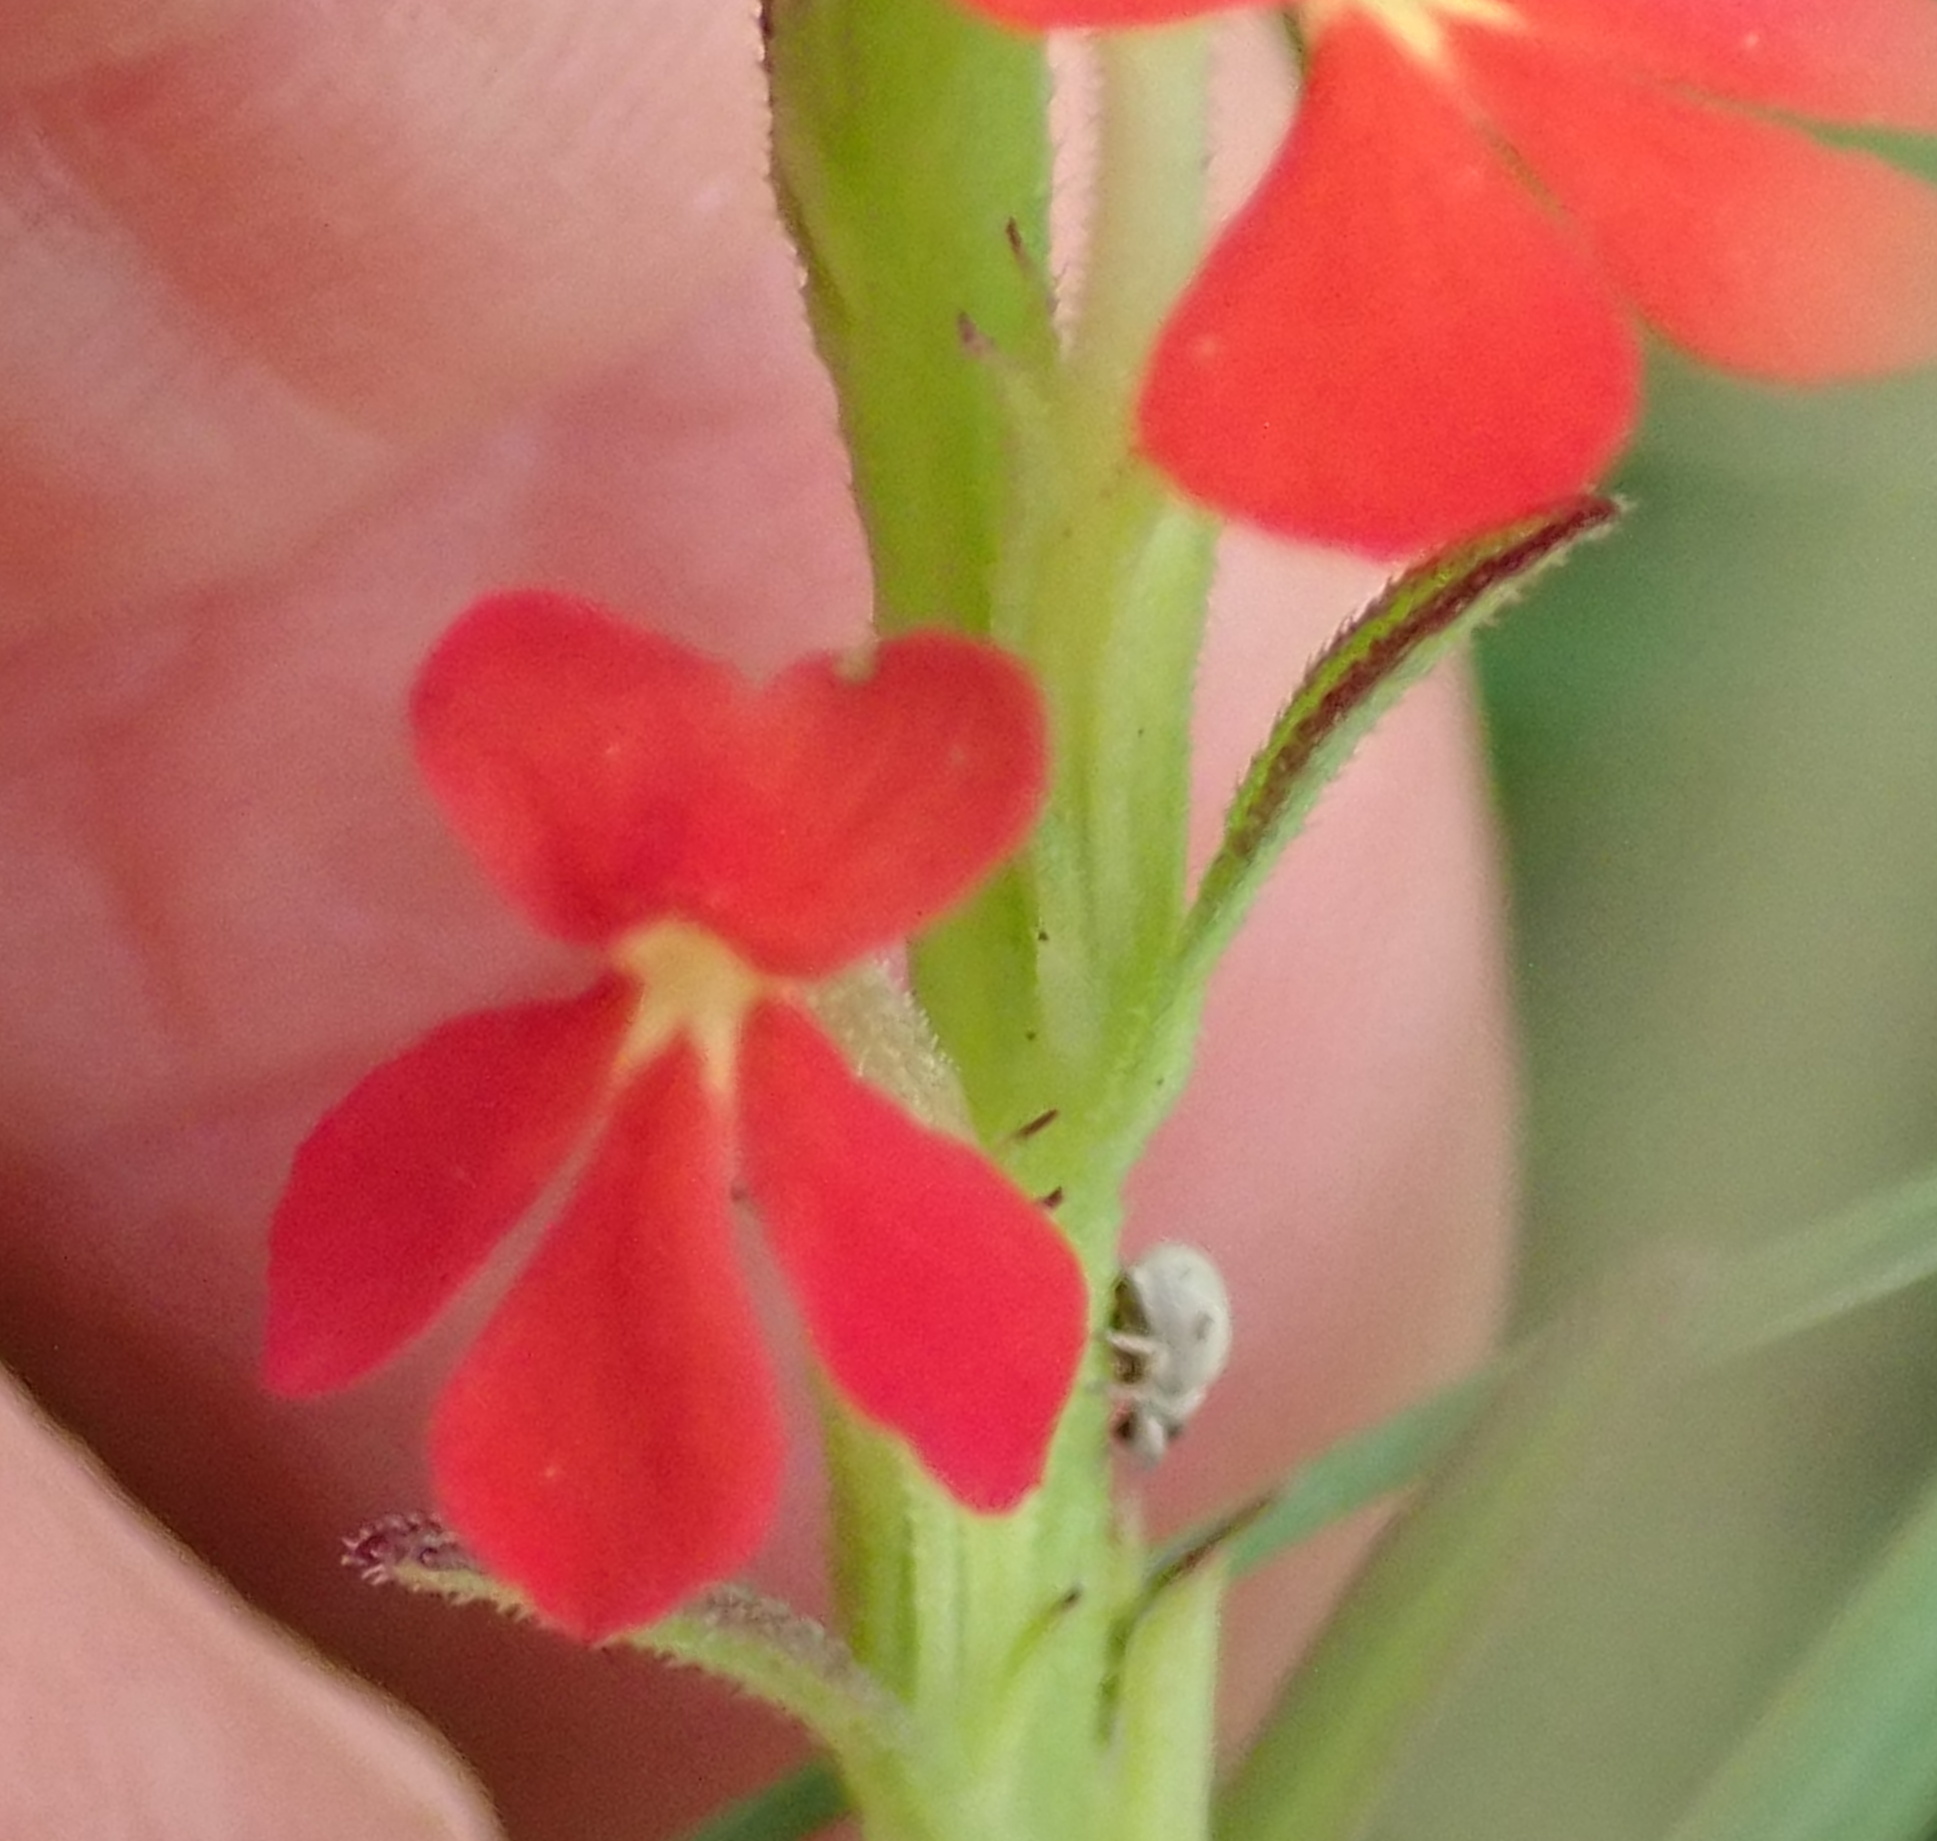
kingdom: Plantae
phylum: Tracheophyta
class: Magnoliopsida
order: Lamiales
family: Orobanchaceae
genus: Striga
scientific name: Striga asiatica
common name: Asiatic witchweed
